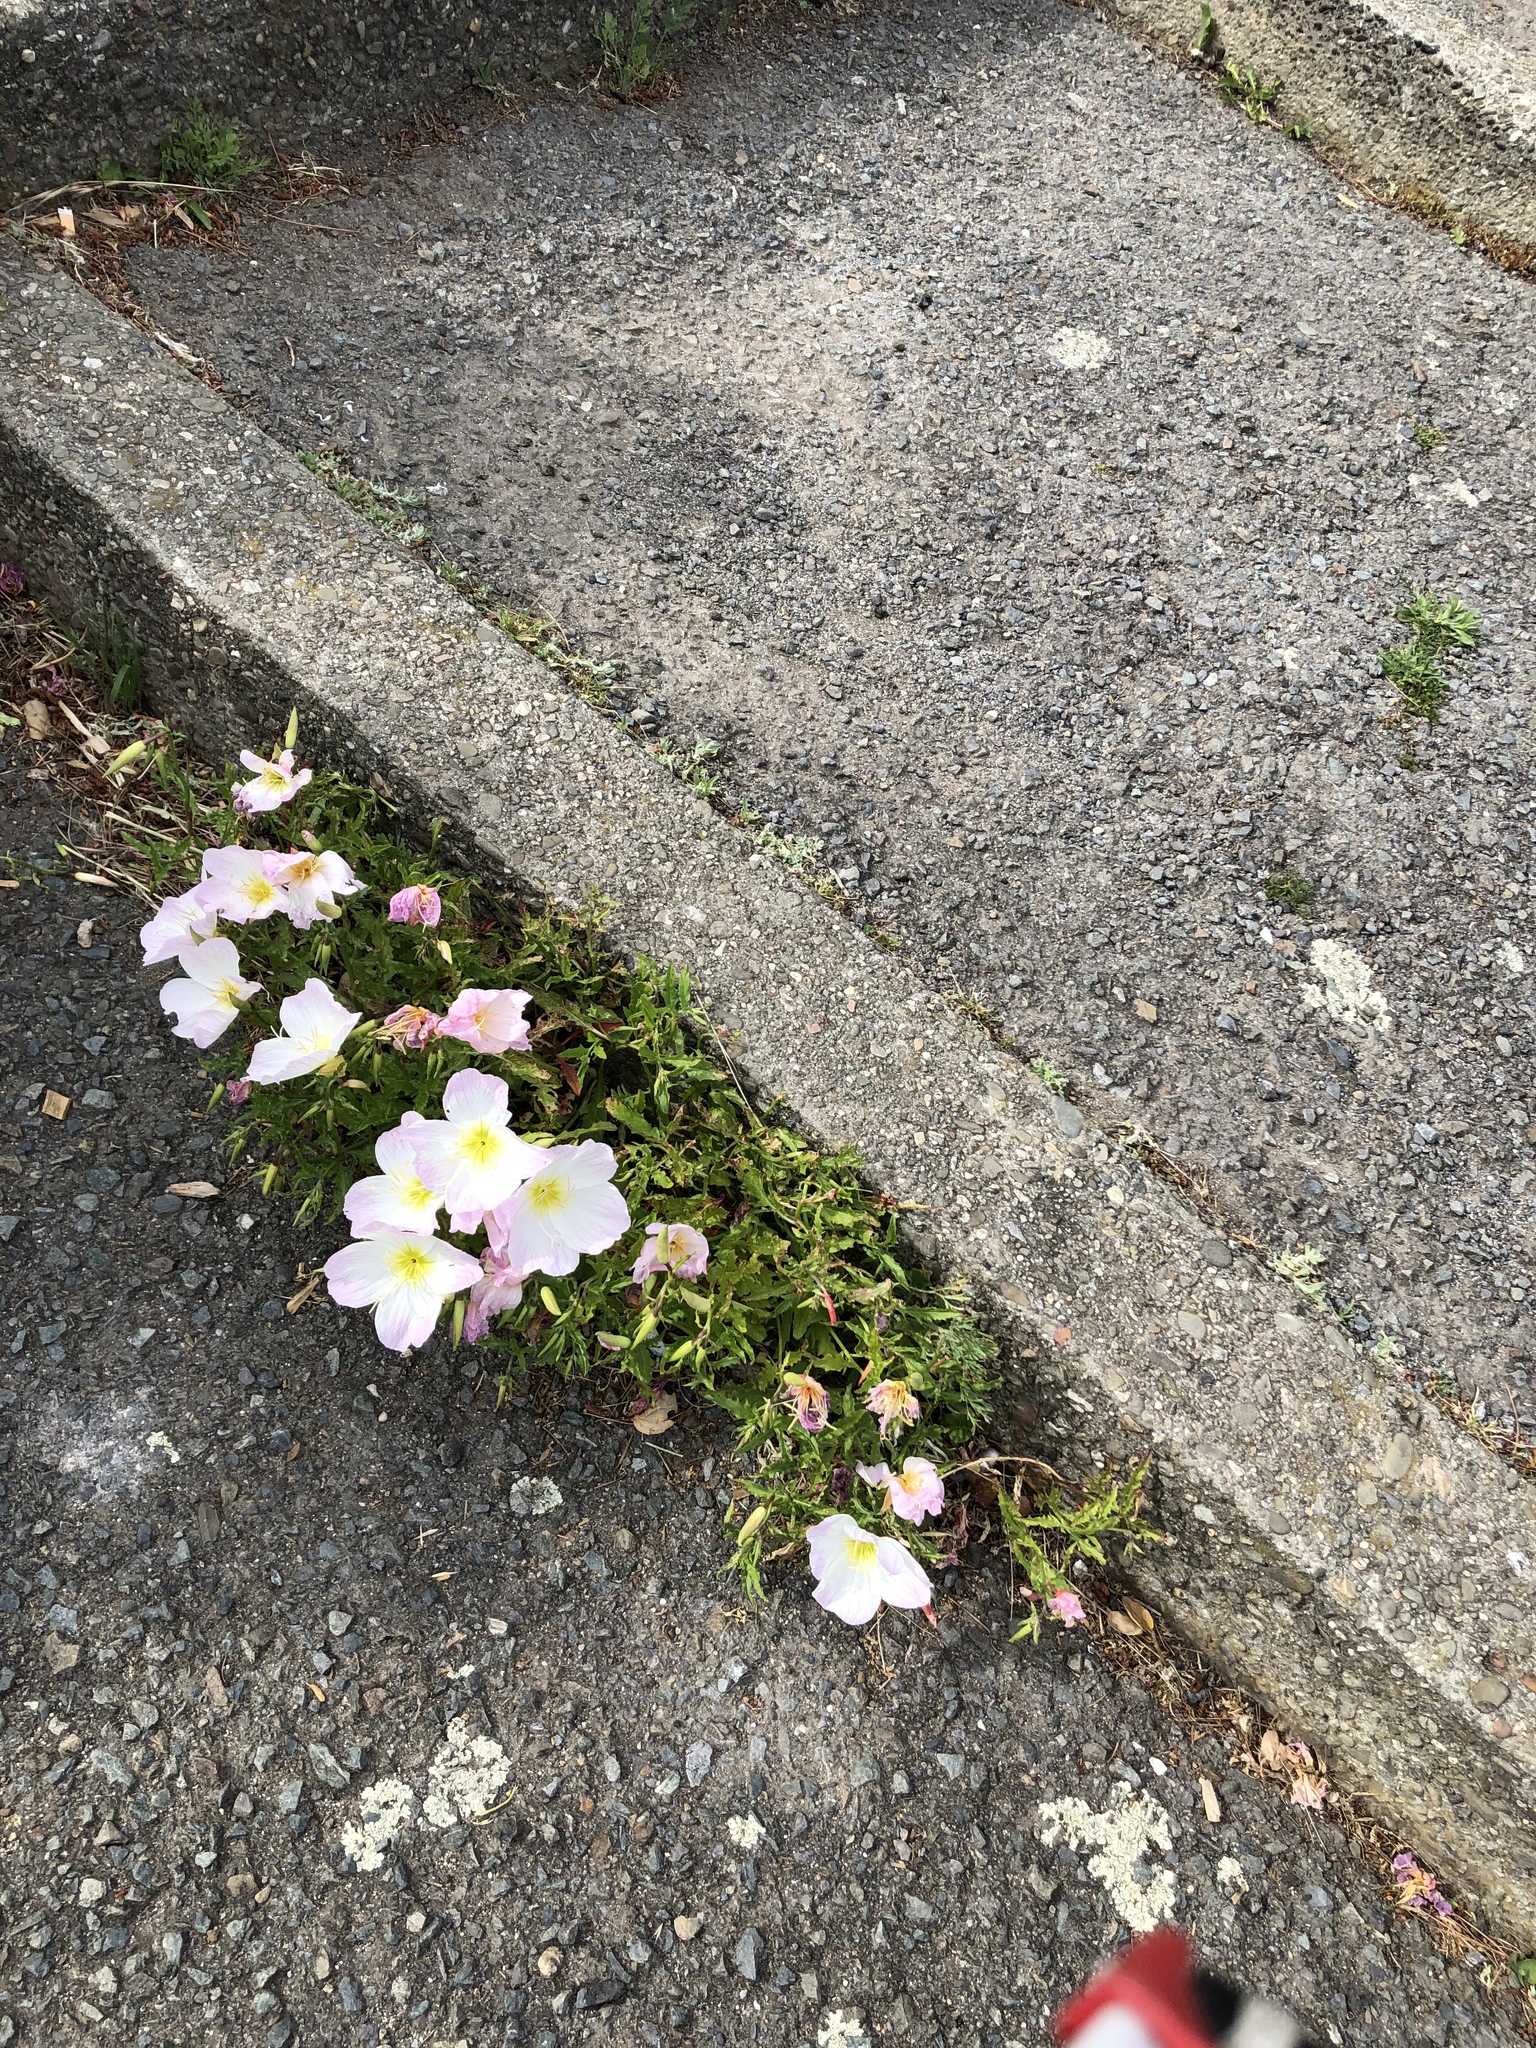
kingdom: Plantae
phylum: Tracheophyta
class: Magnoliopsida
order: Myrtales
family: Onagraceae
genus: Oenothera
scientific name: Oenothera speciosa
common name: White evening-primrose
